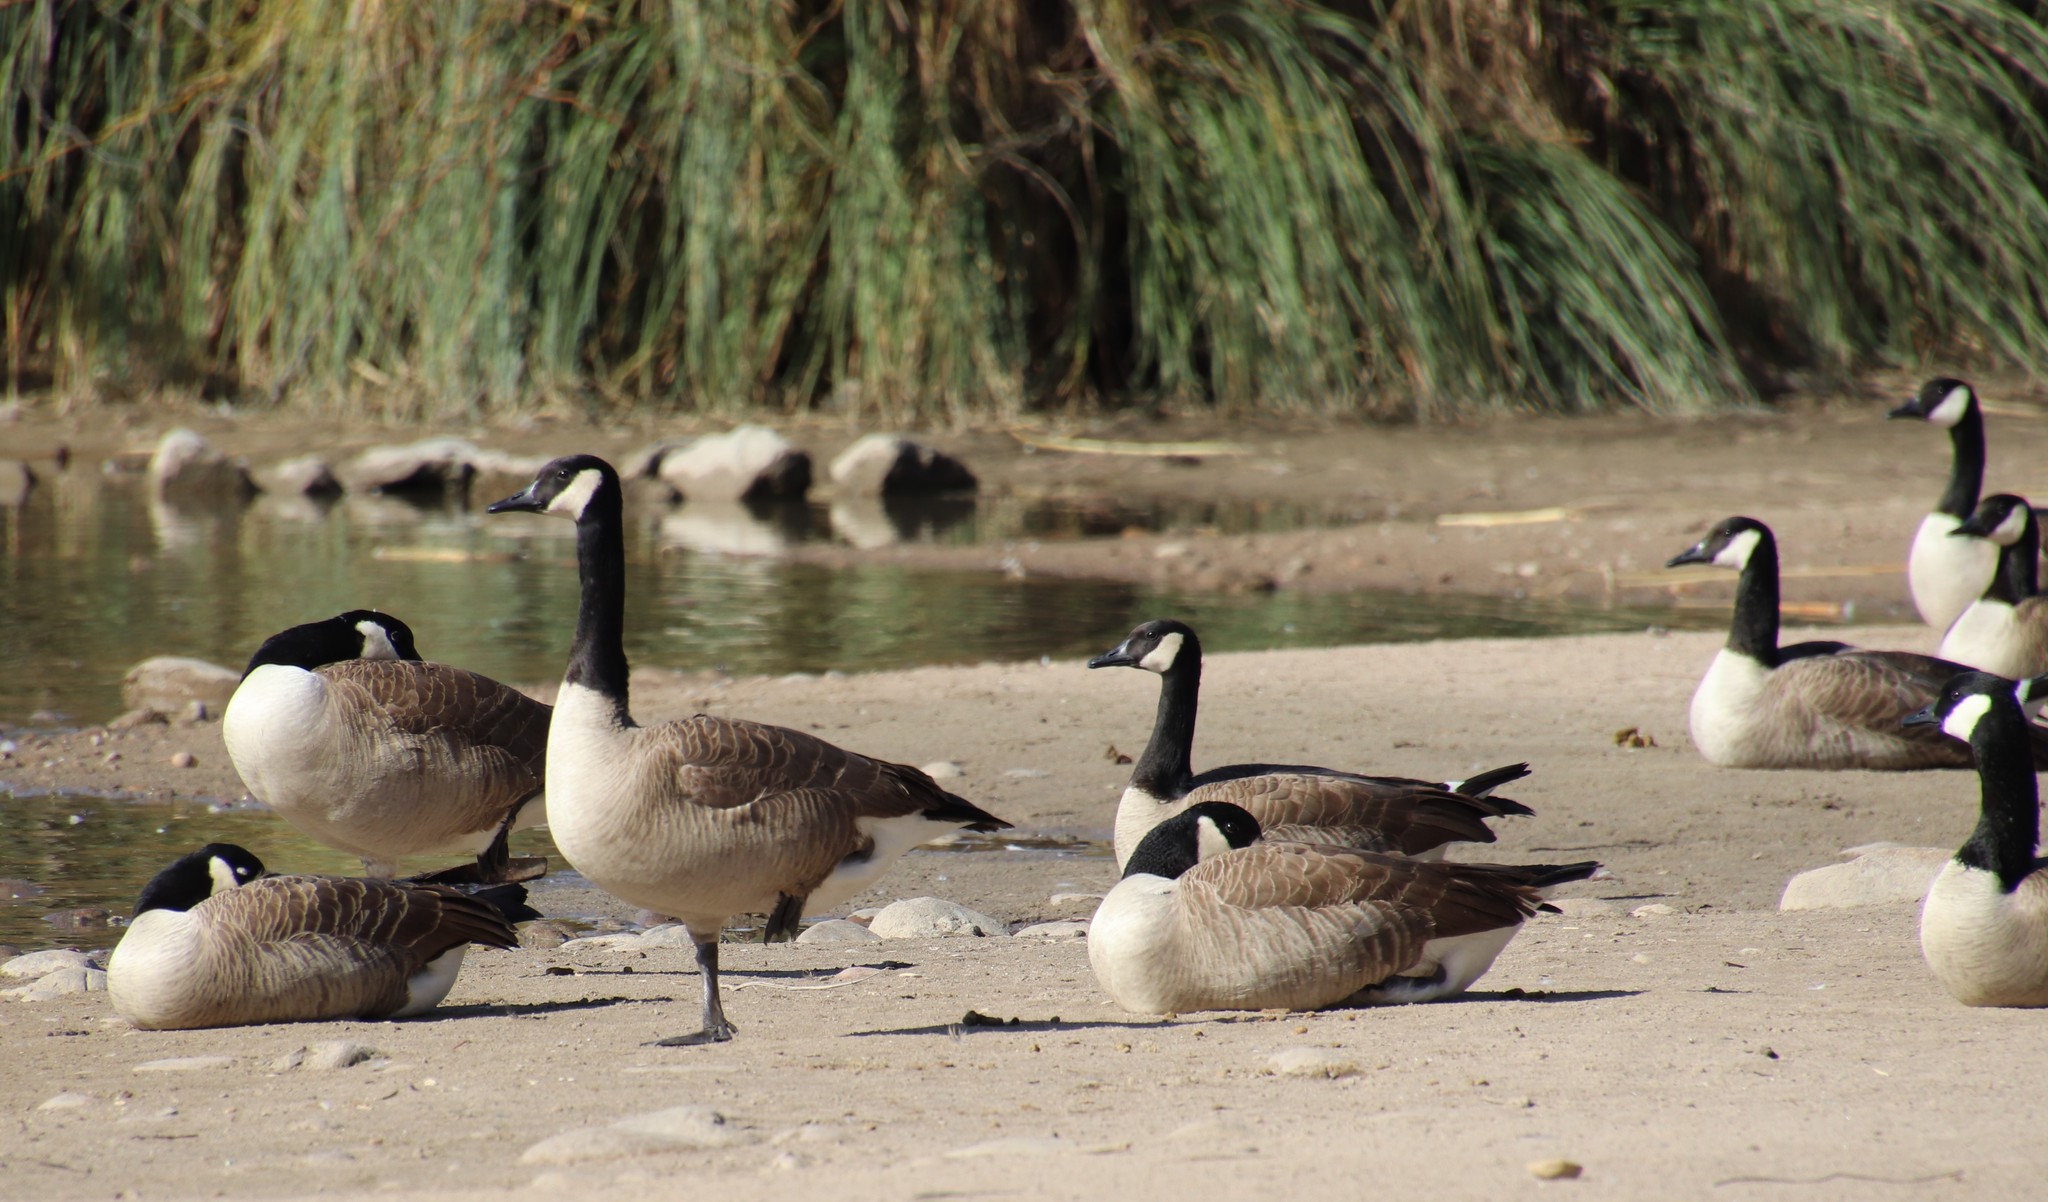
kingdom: Animalia
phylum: Chordata
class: Aves
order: Anseriformes
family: Anatidae
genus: Branta
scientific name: Branta canadensis
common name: Canada goose
